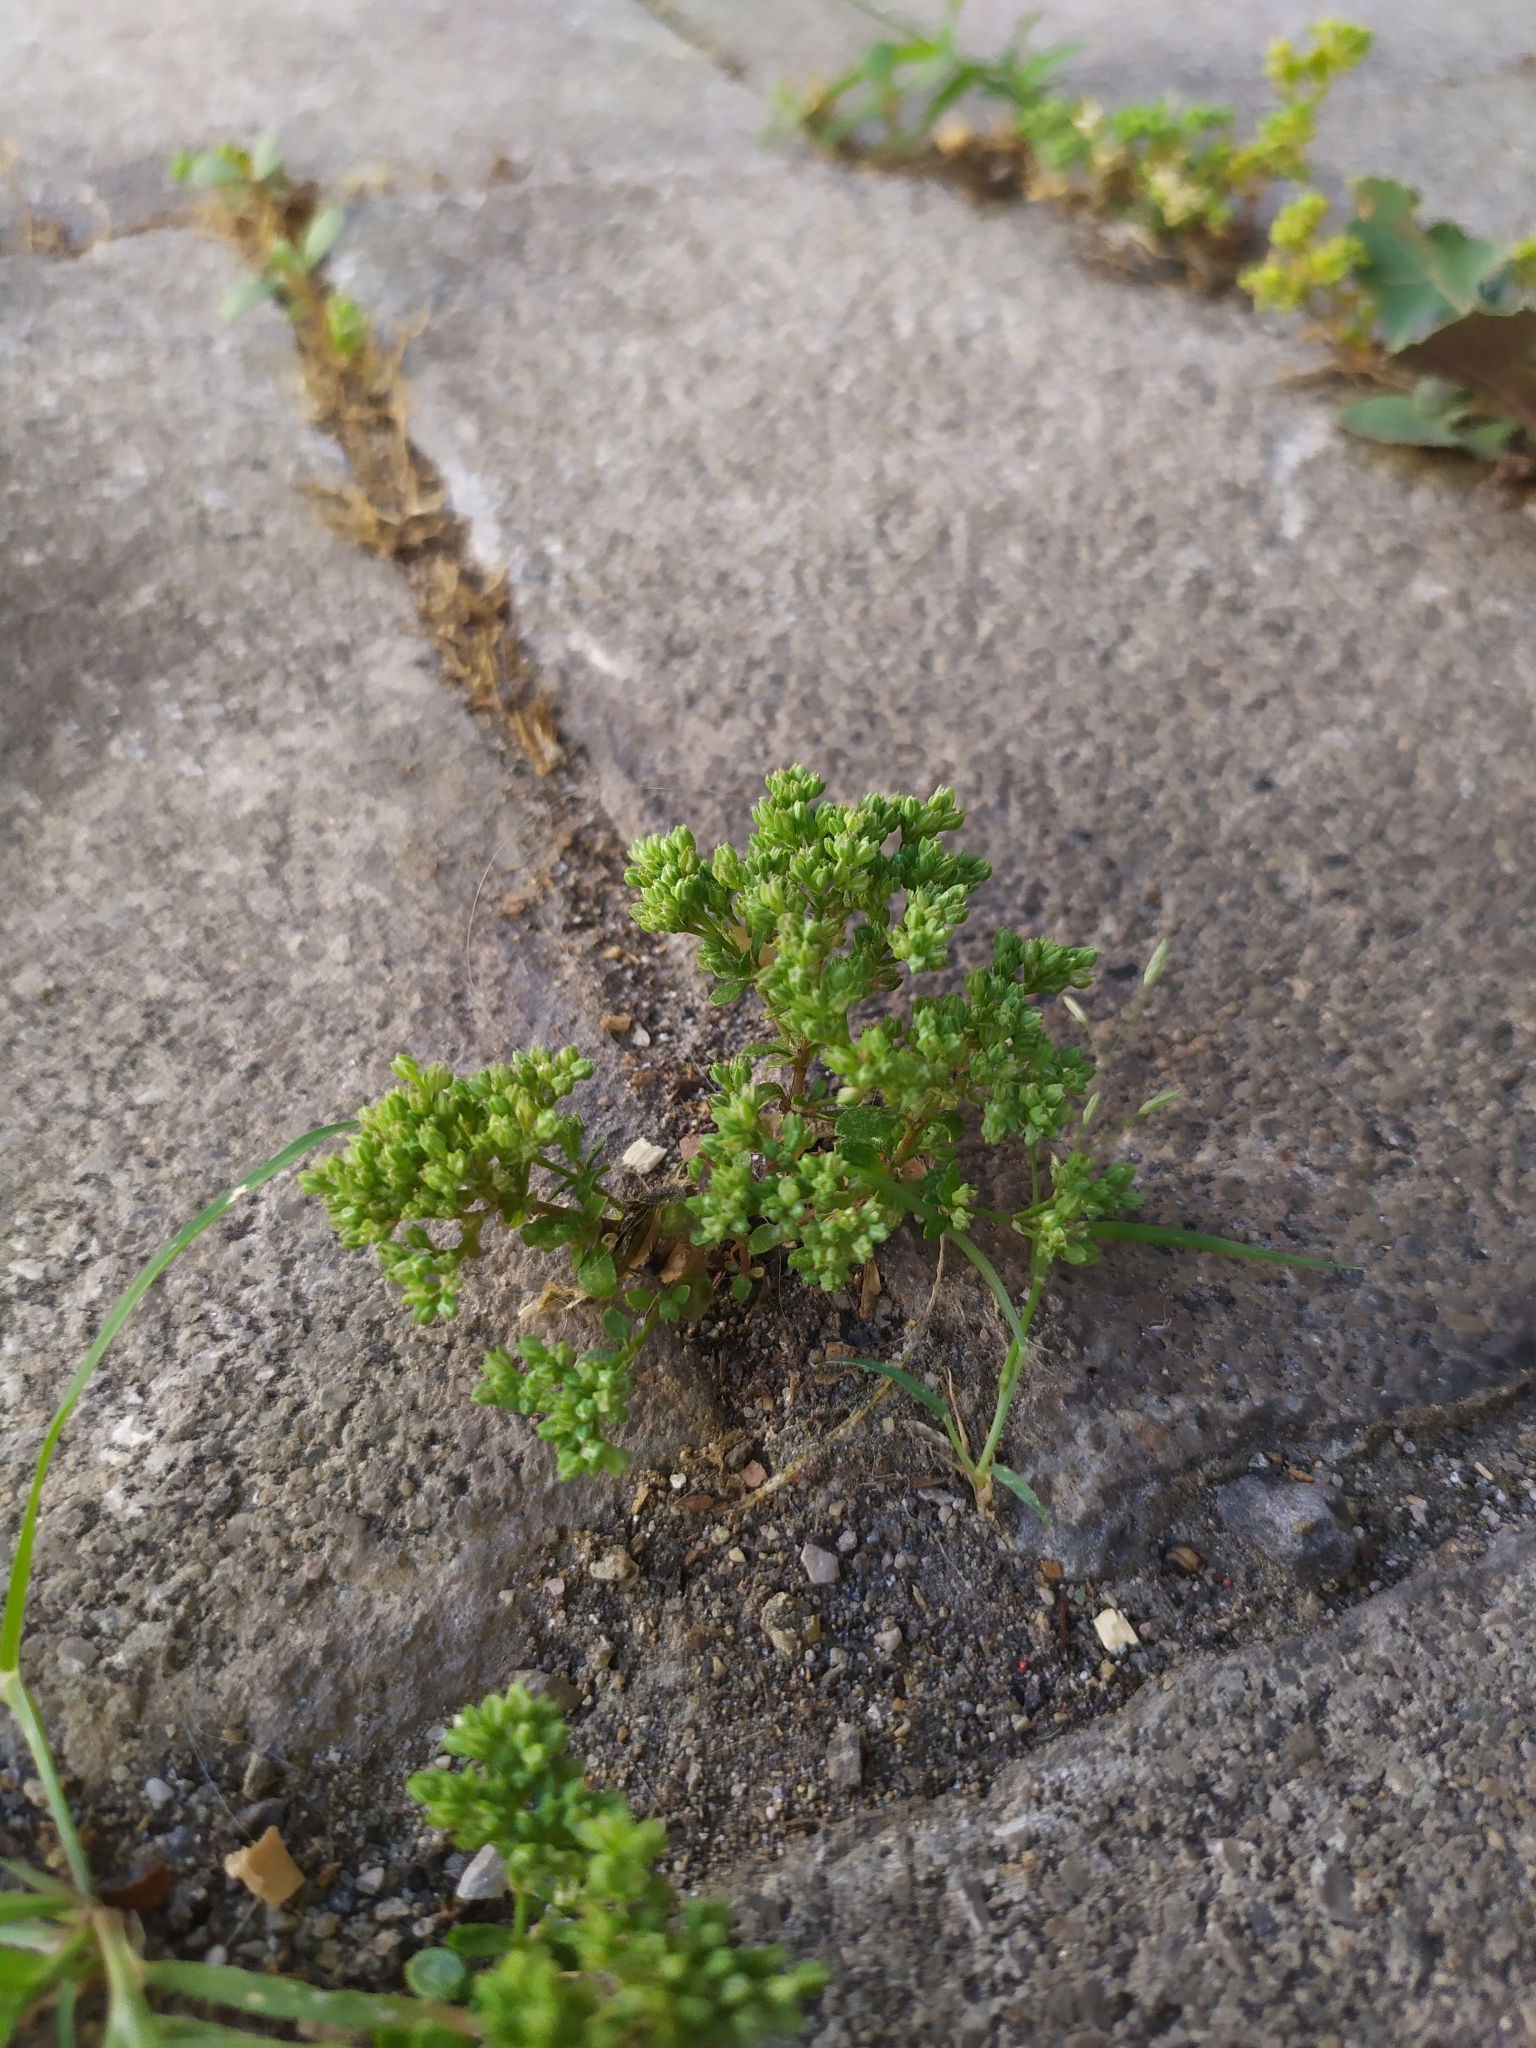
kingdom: Plantae
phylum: Tracheophyta
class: Magnoliopsida
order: Caryophyllales
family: Caryophyllaceae
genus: Polycarpon
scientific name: Polycarpon tetraphyllum
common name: Four-leaved all-seed
